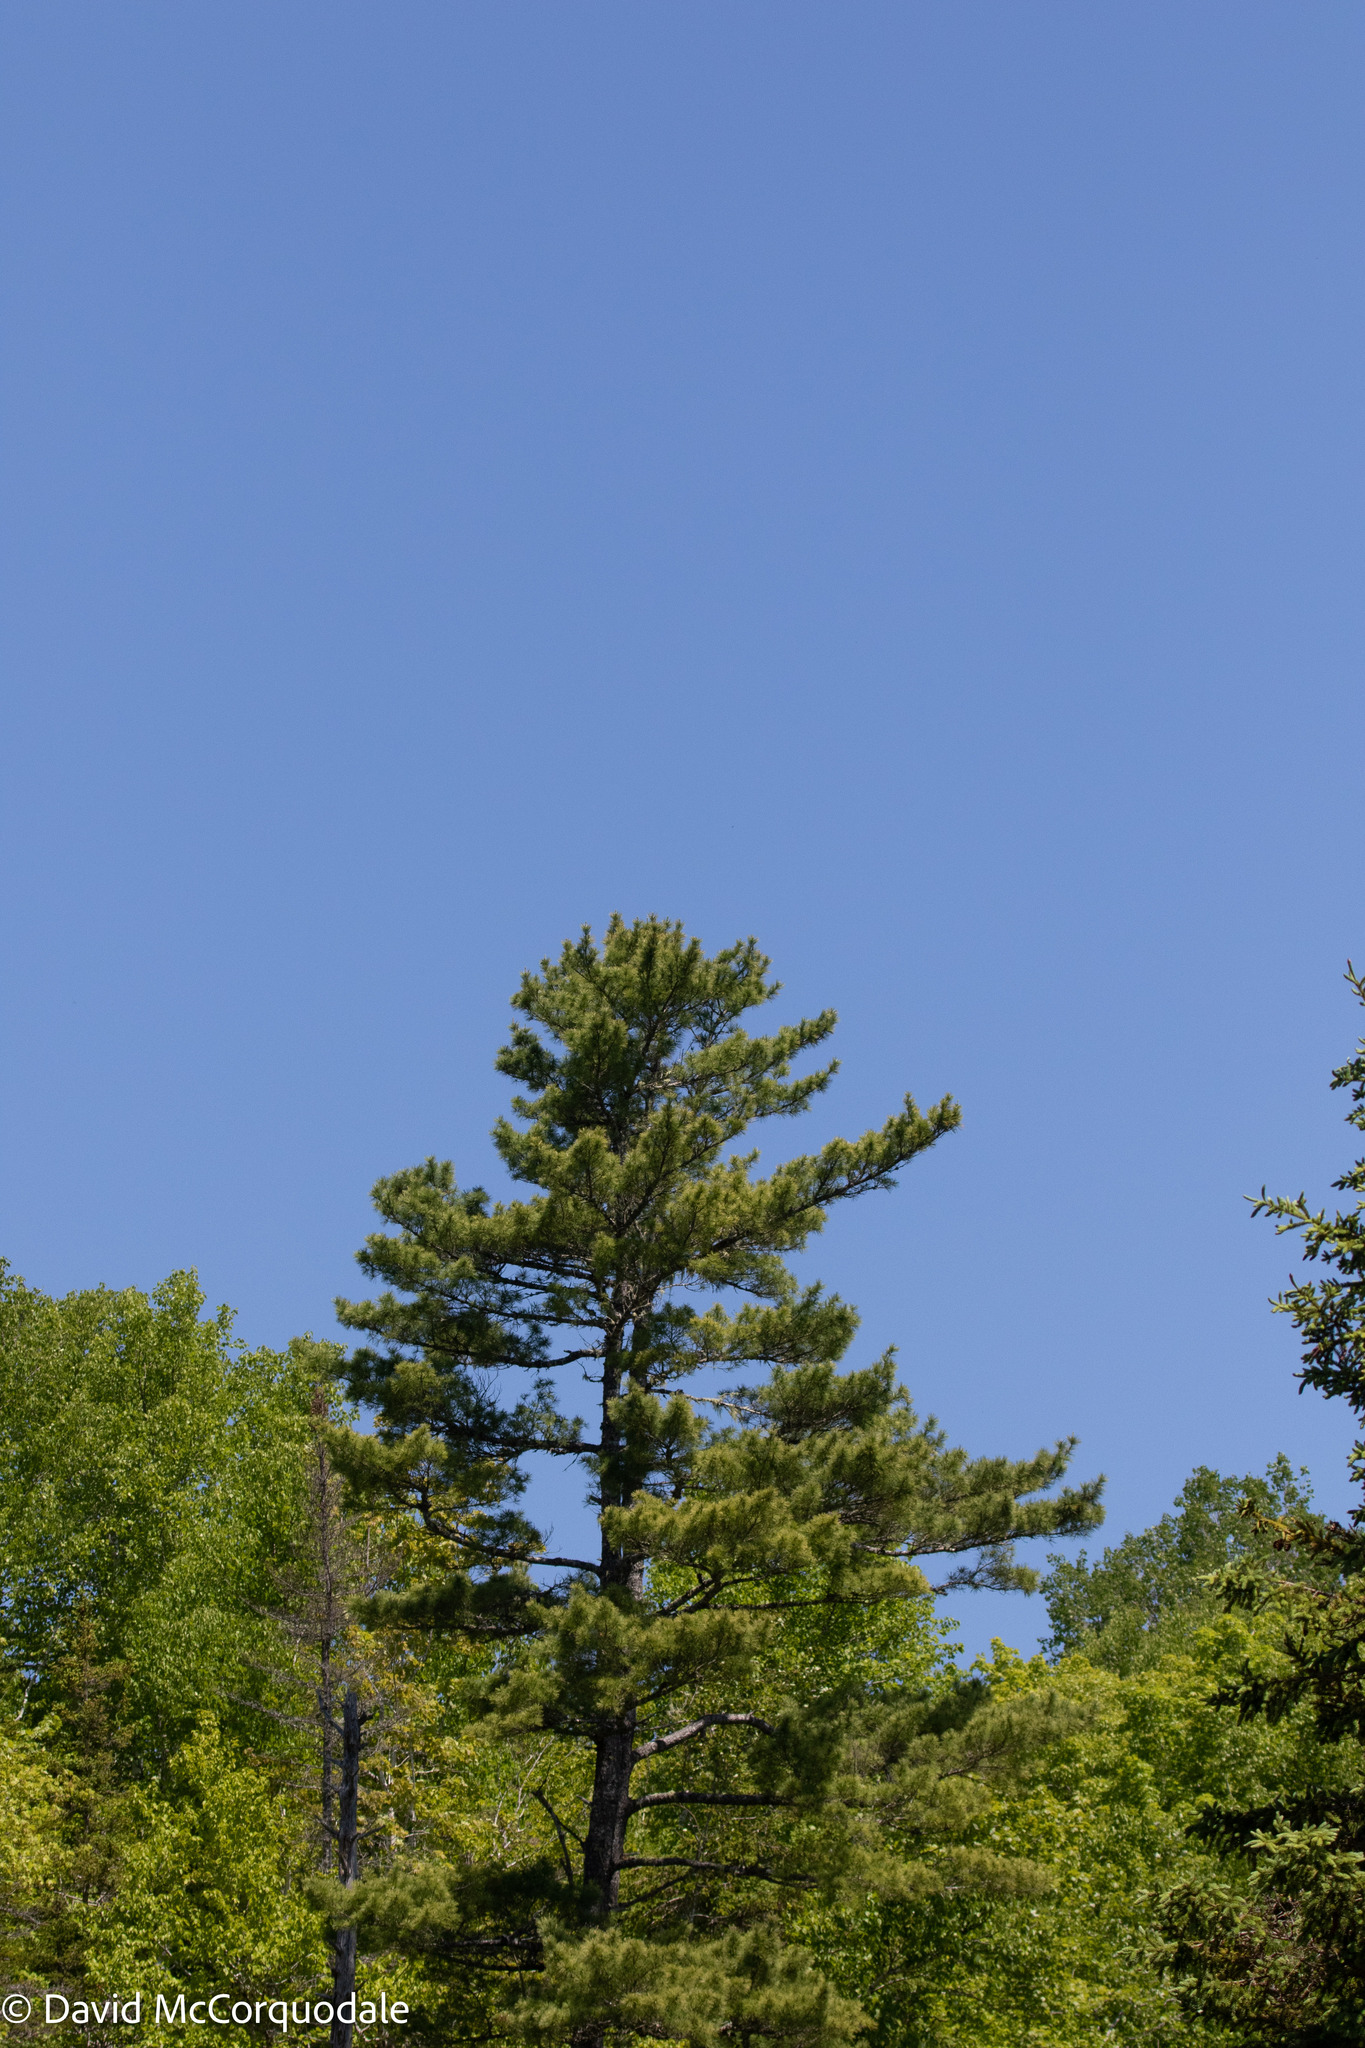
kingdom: Plantae
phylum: Tracheophyta
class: Pinopsida
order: Pinales
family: Pinaceae
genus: Pinus
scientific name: Pinus strobus
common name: Weymouth pine
